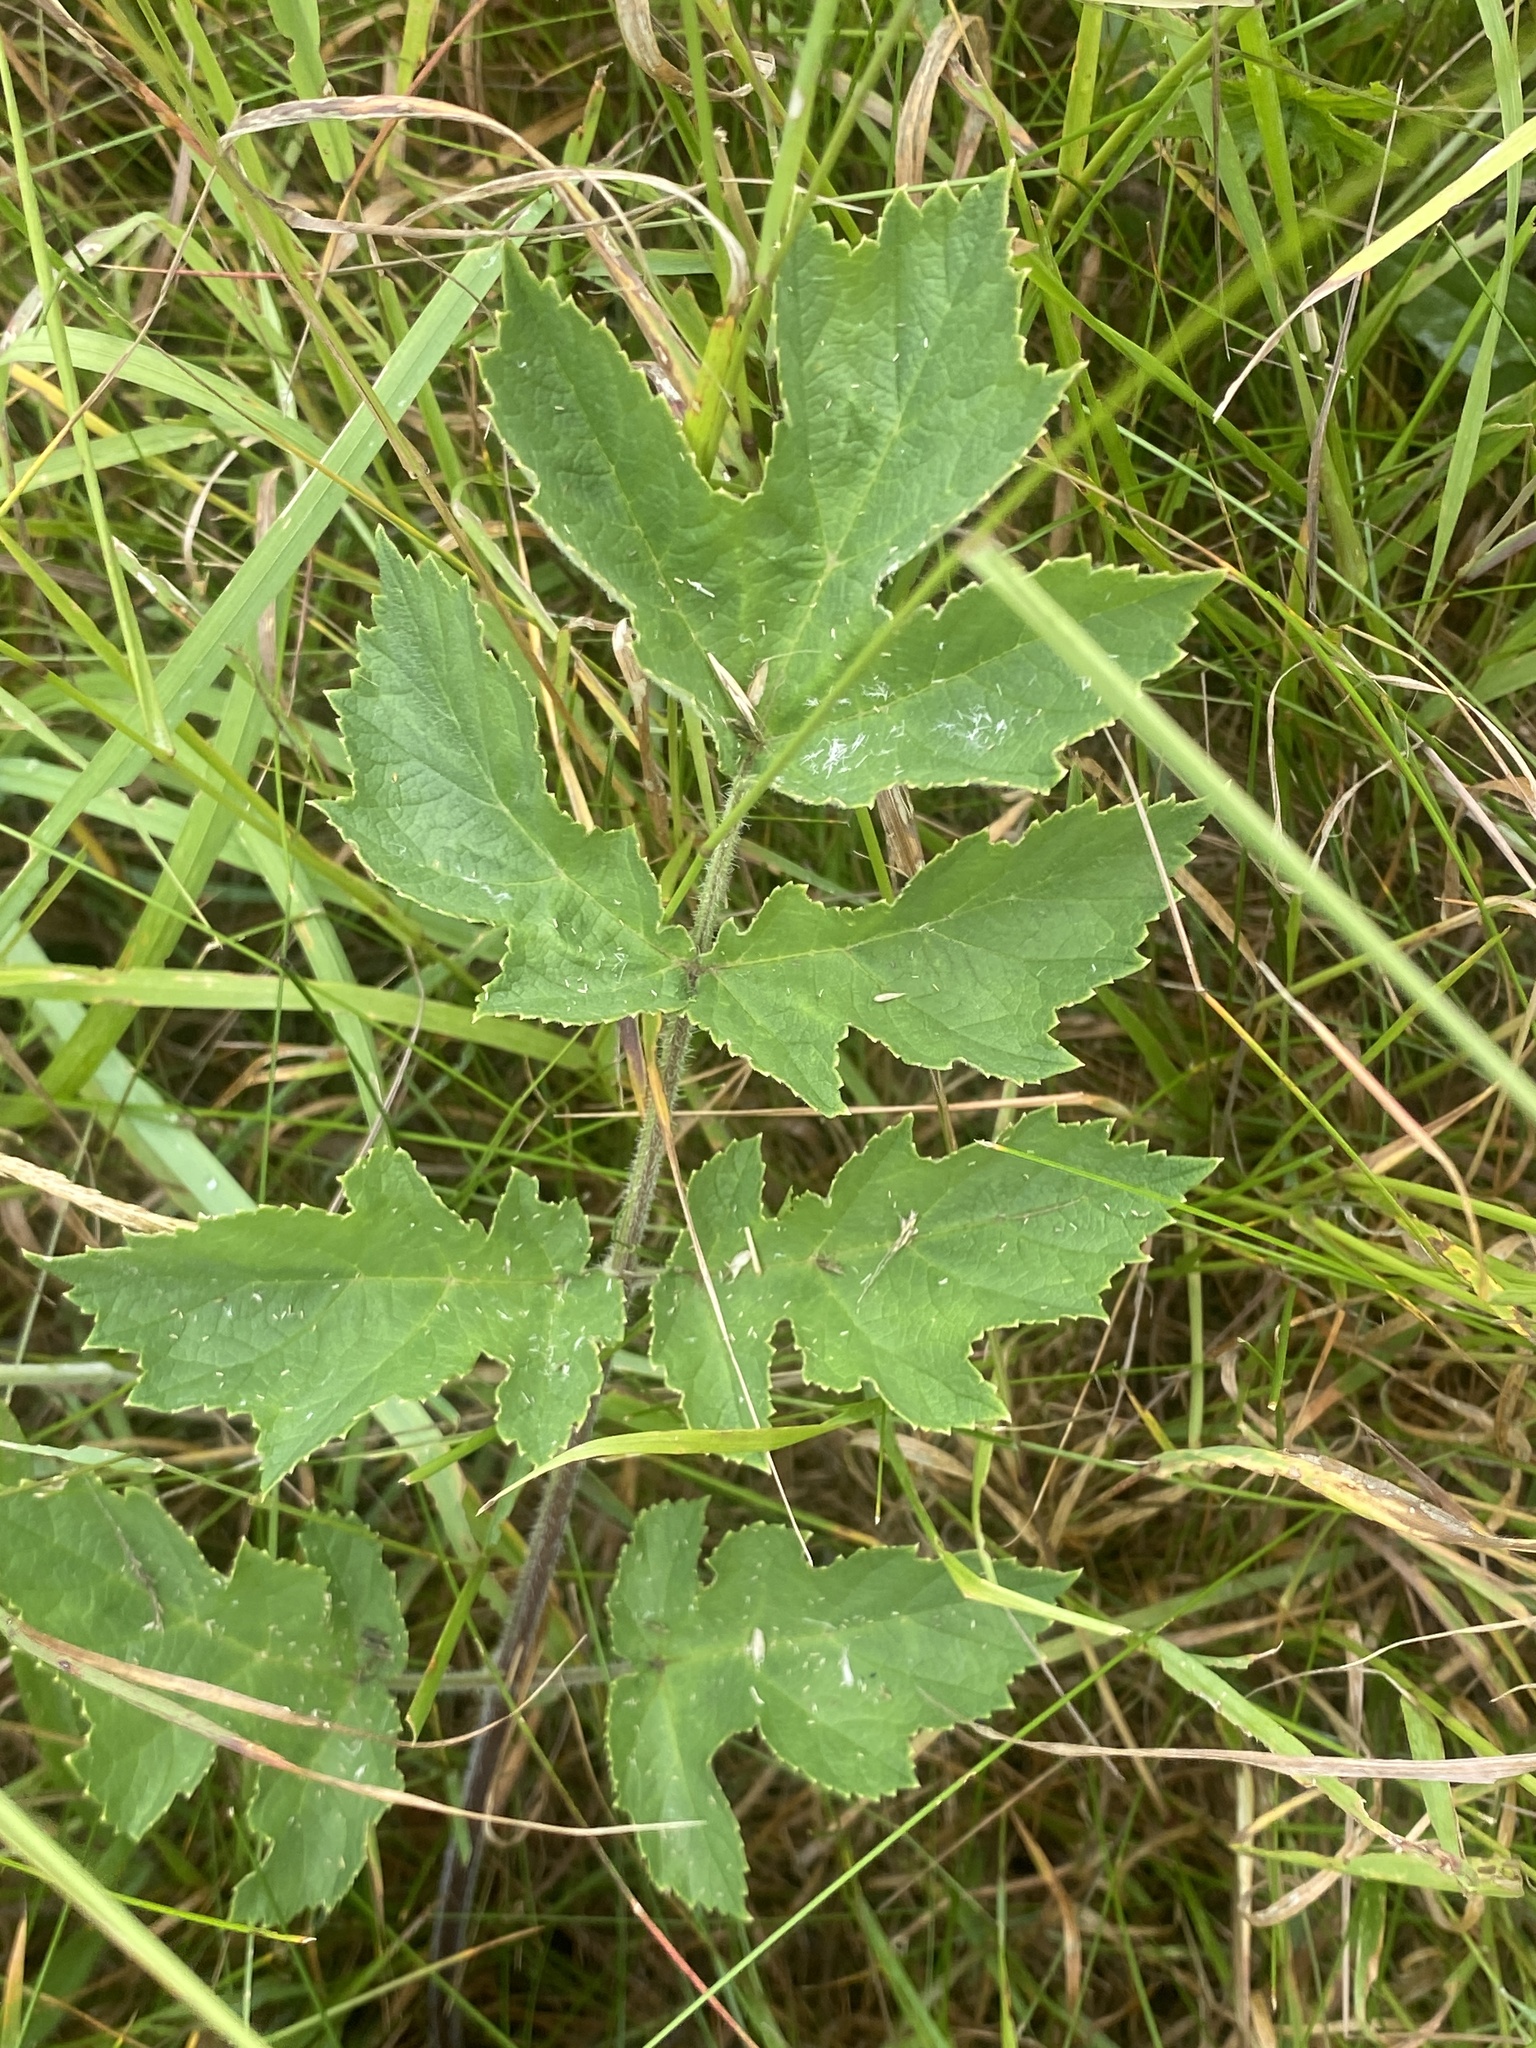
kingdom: Plantae
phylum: Tracheophyta
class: Magnoliopsida
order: Apiales
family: Apiaceae
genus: Heracleum
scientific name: Heracleum sphondylium
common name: Hogweed
